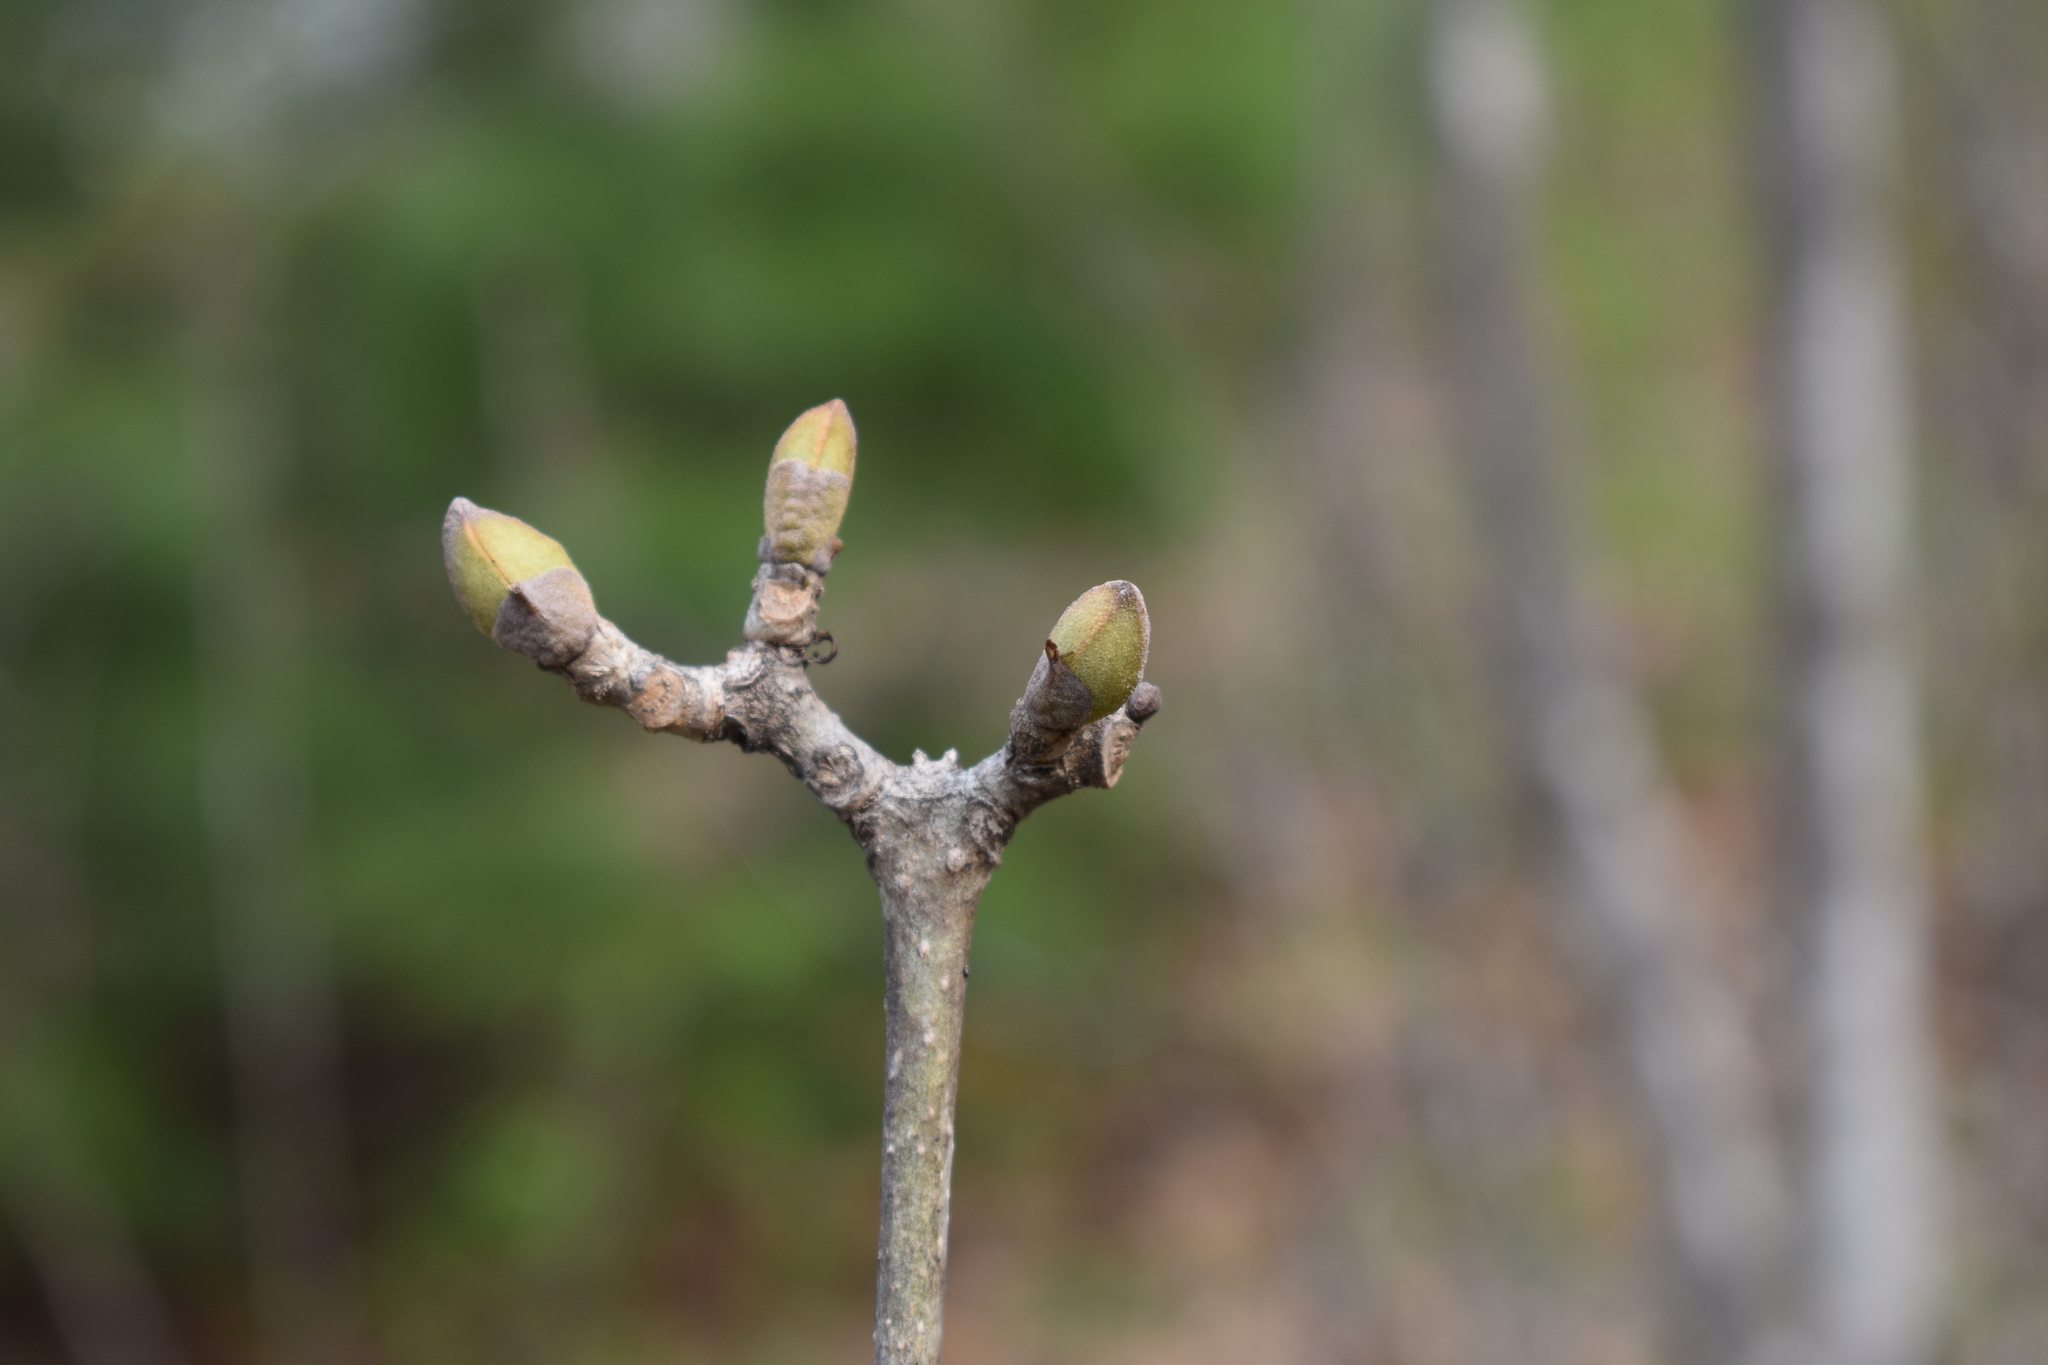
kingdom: Plantae
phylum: Tracheophyta
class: Magnoliopsida
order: Lamiales
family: Oleaceae
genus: Fraxinus
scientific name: Fraxinus chinensis
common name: Chinese ash
